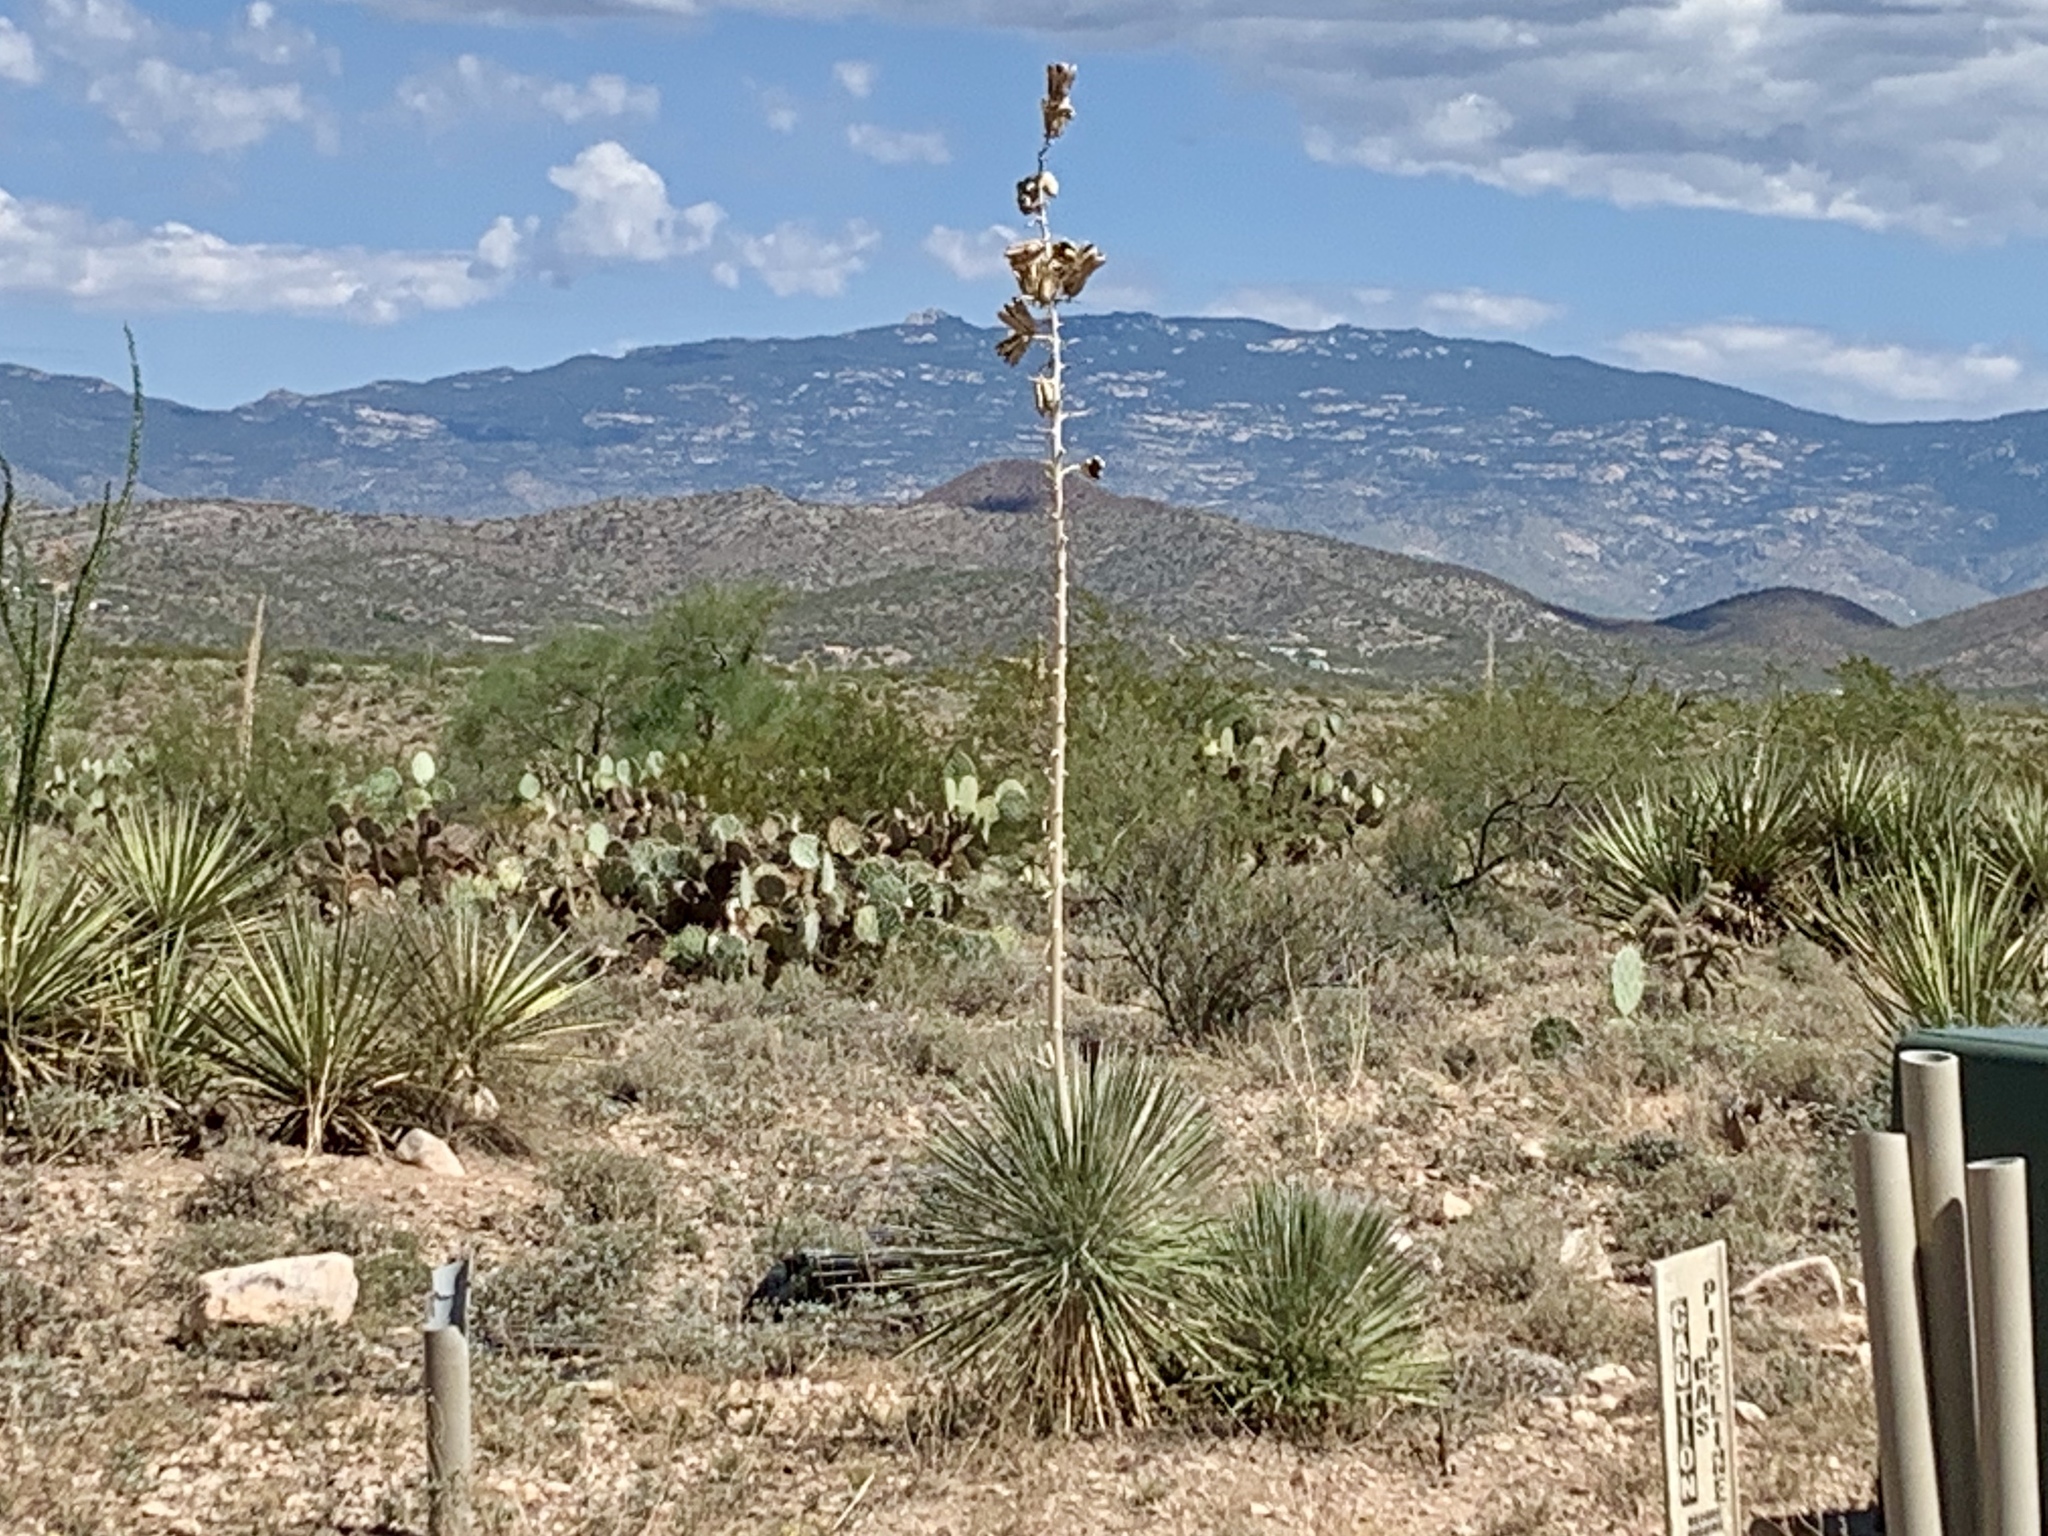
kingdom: Plantae
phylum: Tracheophyta
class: Liliopsida
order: Asparagales
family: Asparagaceae
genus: Yucca
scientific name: Yucca elata
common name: Palmella
